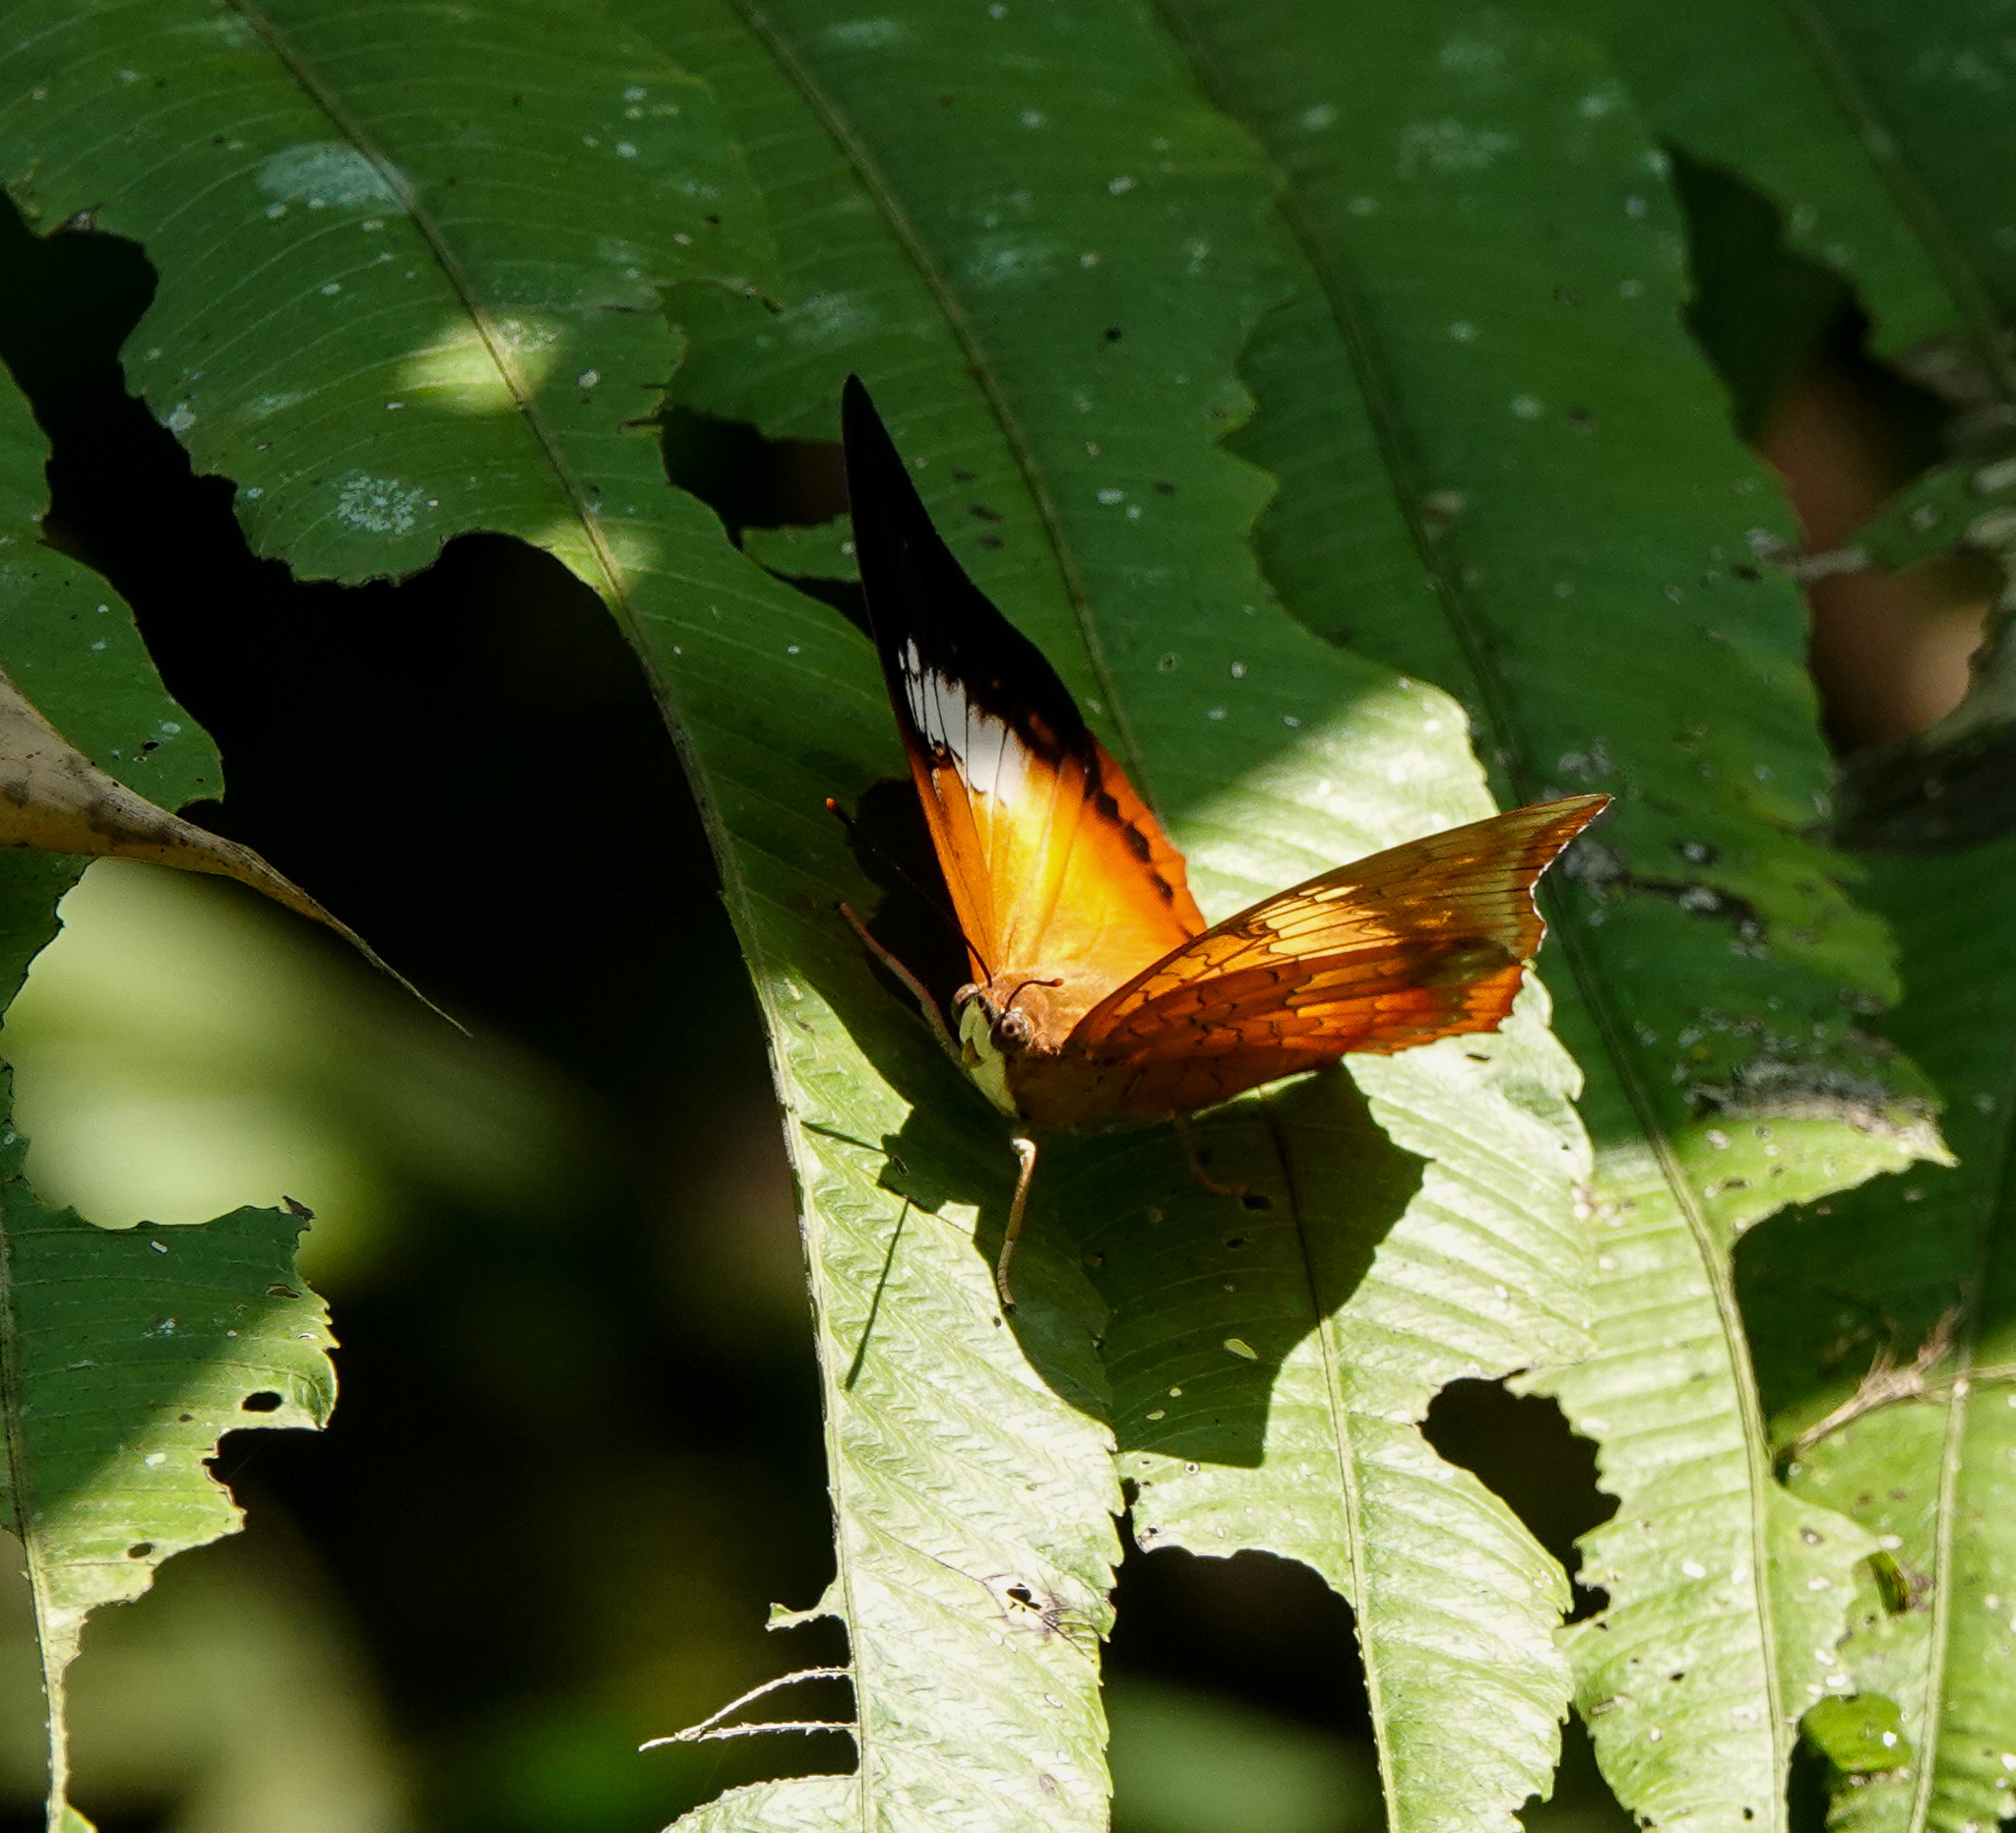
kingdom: Animalia
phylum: Arthropoda
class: Insecta
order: Lepidoptera
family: Nymphalidae
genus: Charaxes
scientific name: Charaxes bernardus
